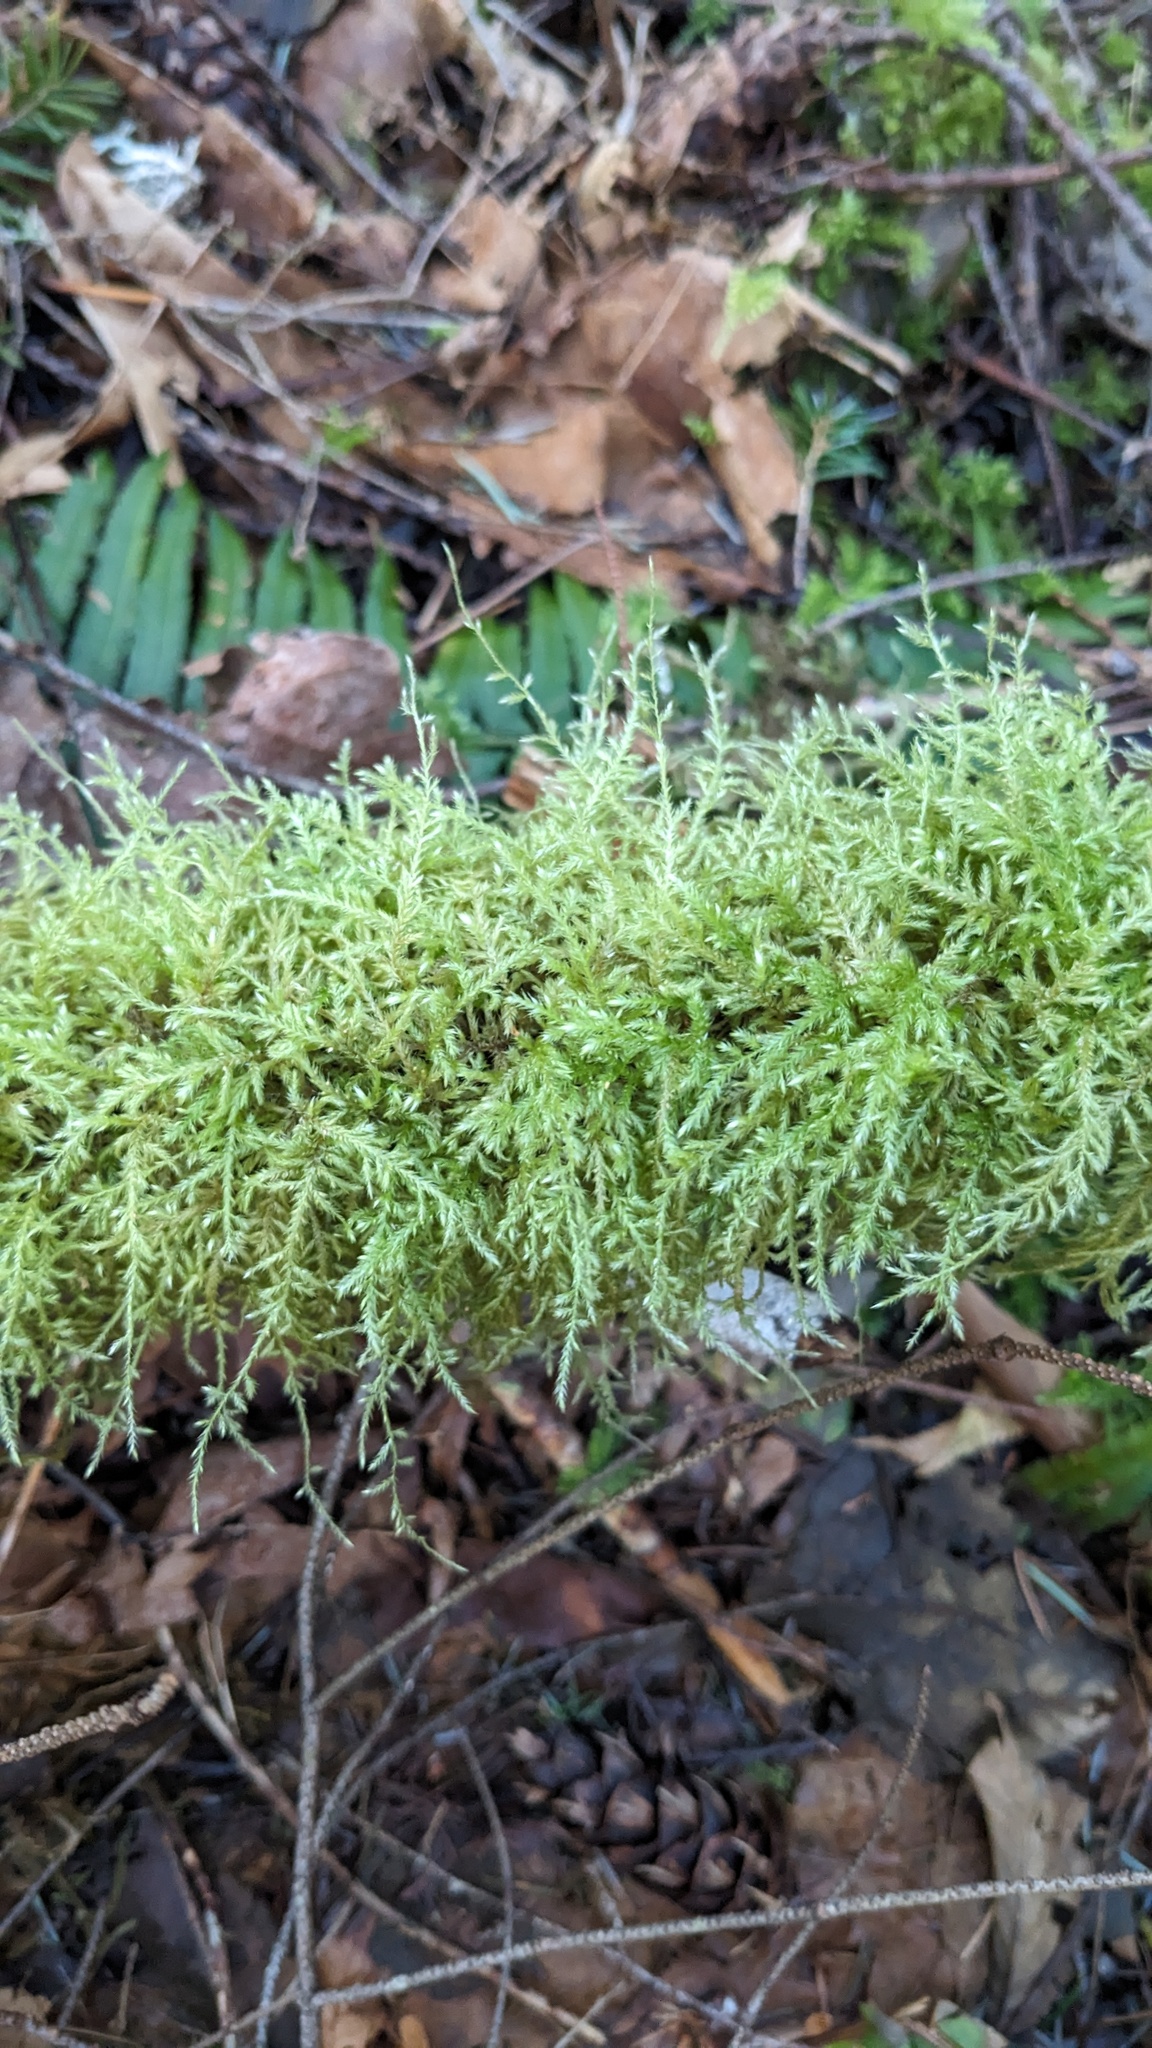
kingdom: Plantae
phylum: Bryophyta
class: Bryopsida
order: Hypnales
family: Lembophyllaceae
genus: Pseudisothecium
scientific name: Pseudisothecium stoloniferum
